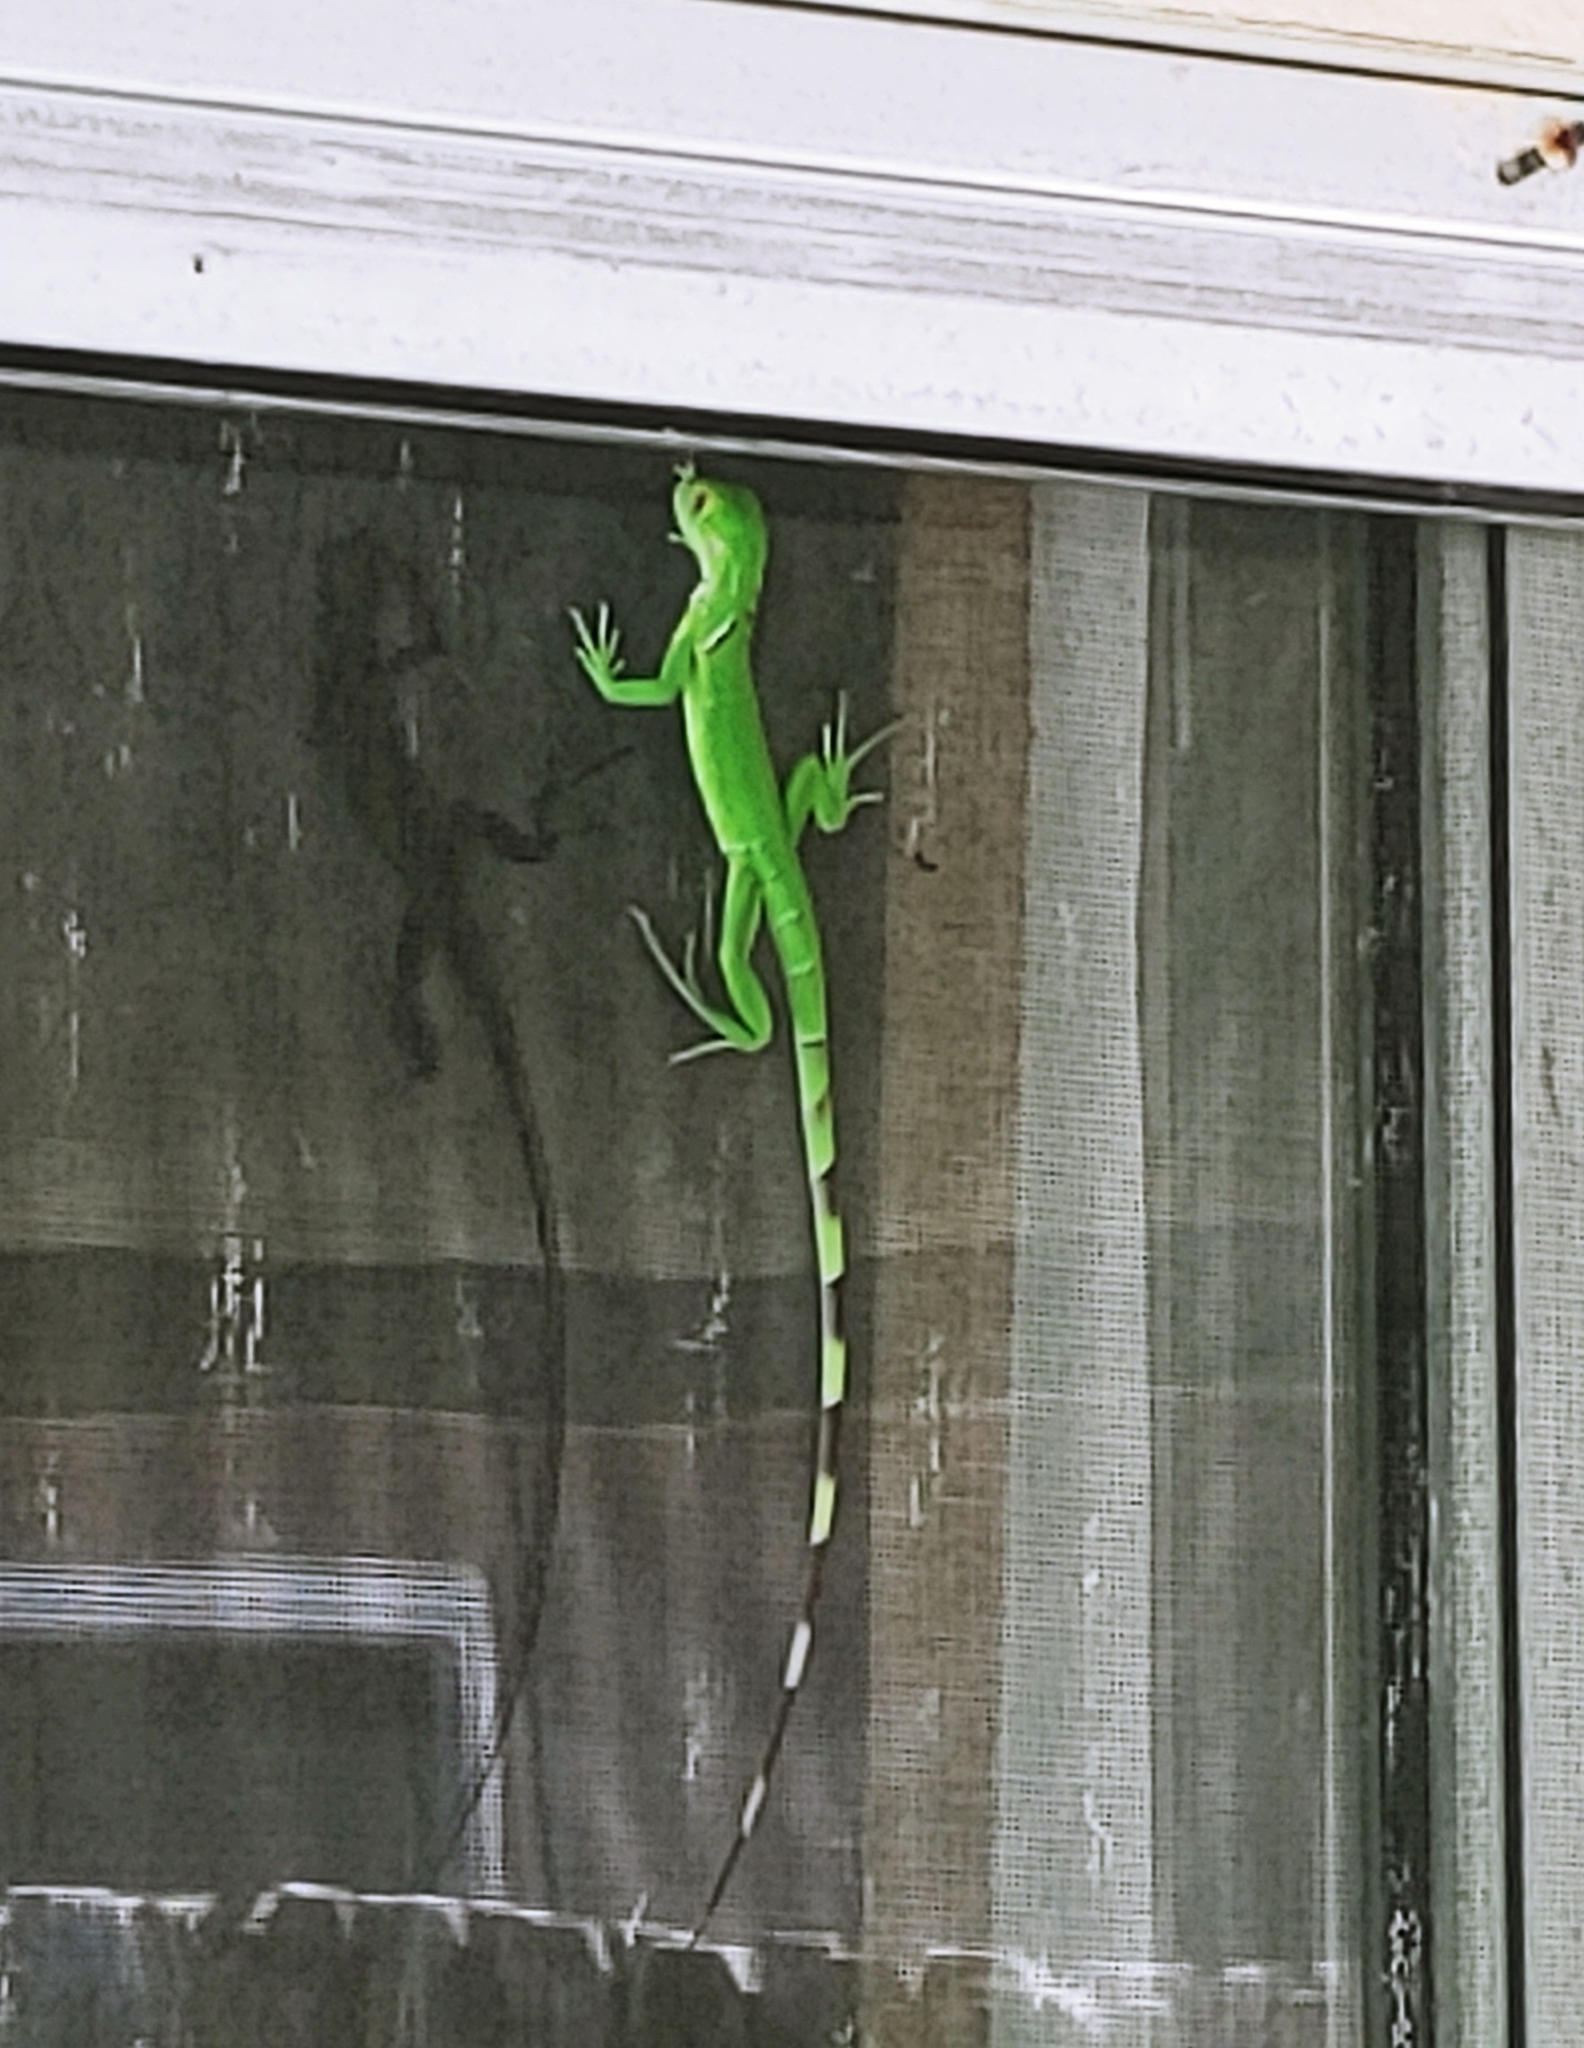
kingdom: Animalia
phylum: Chordata
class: Squamata
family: Iguanidae
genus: Iguana
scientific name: Iguana iguana
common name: Green iguana
